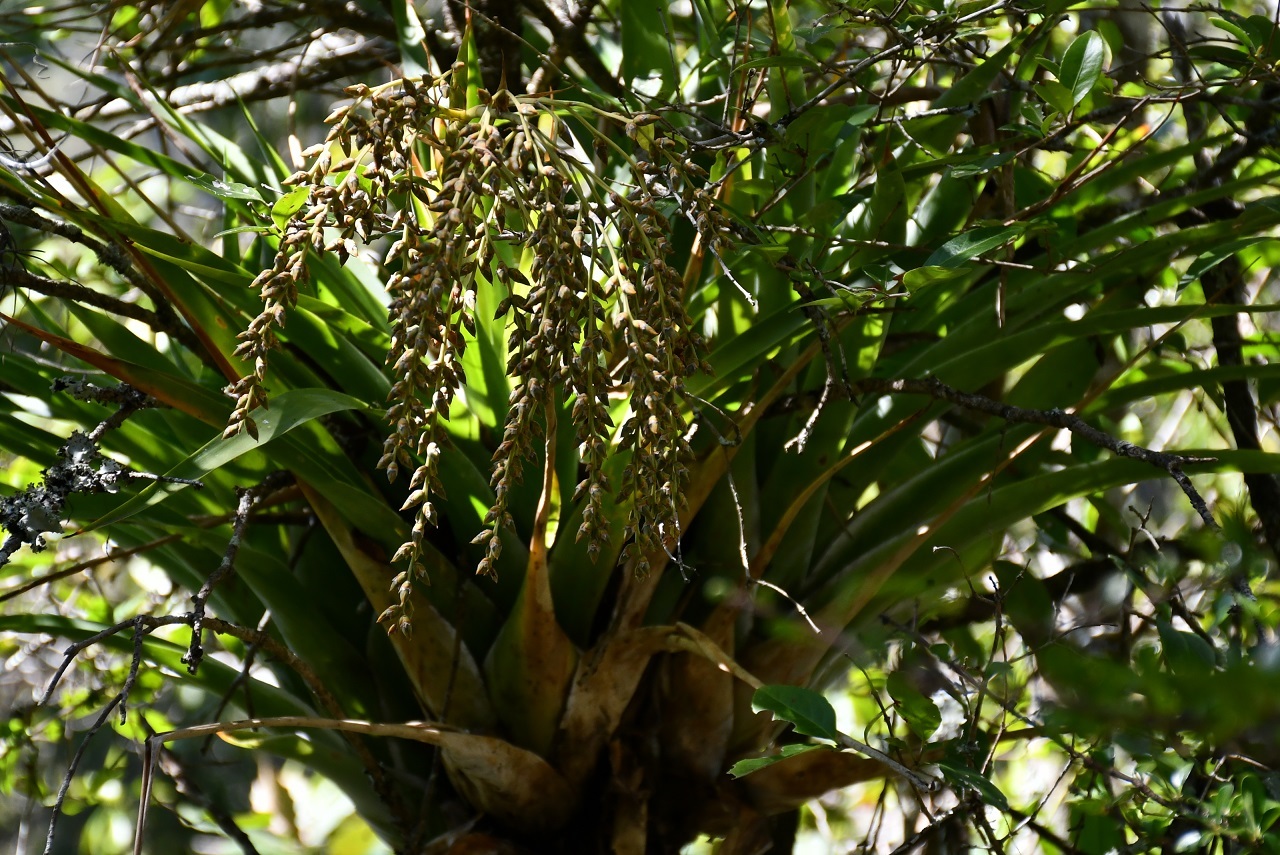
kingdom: Plantae
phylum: Tracheophyta
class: Liliopsida
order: Poales
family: Bromeliaceae
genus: Catopsis
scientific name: Catopsis paniculata
